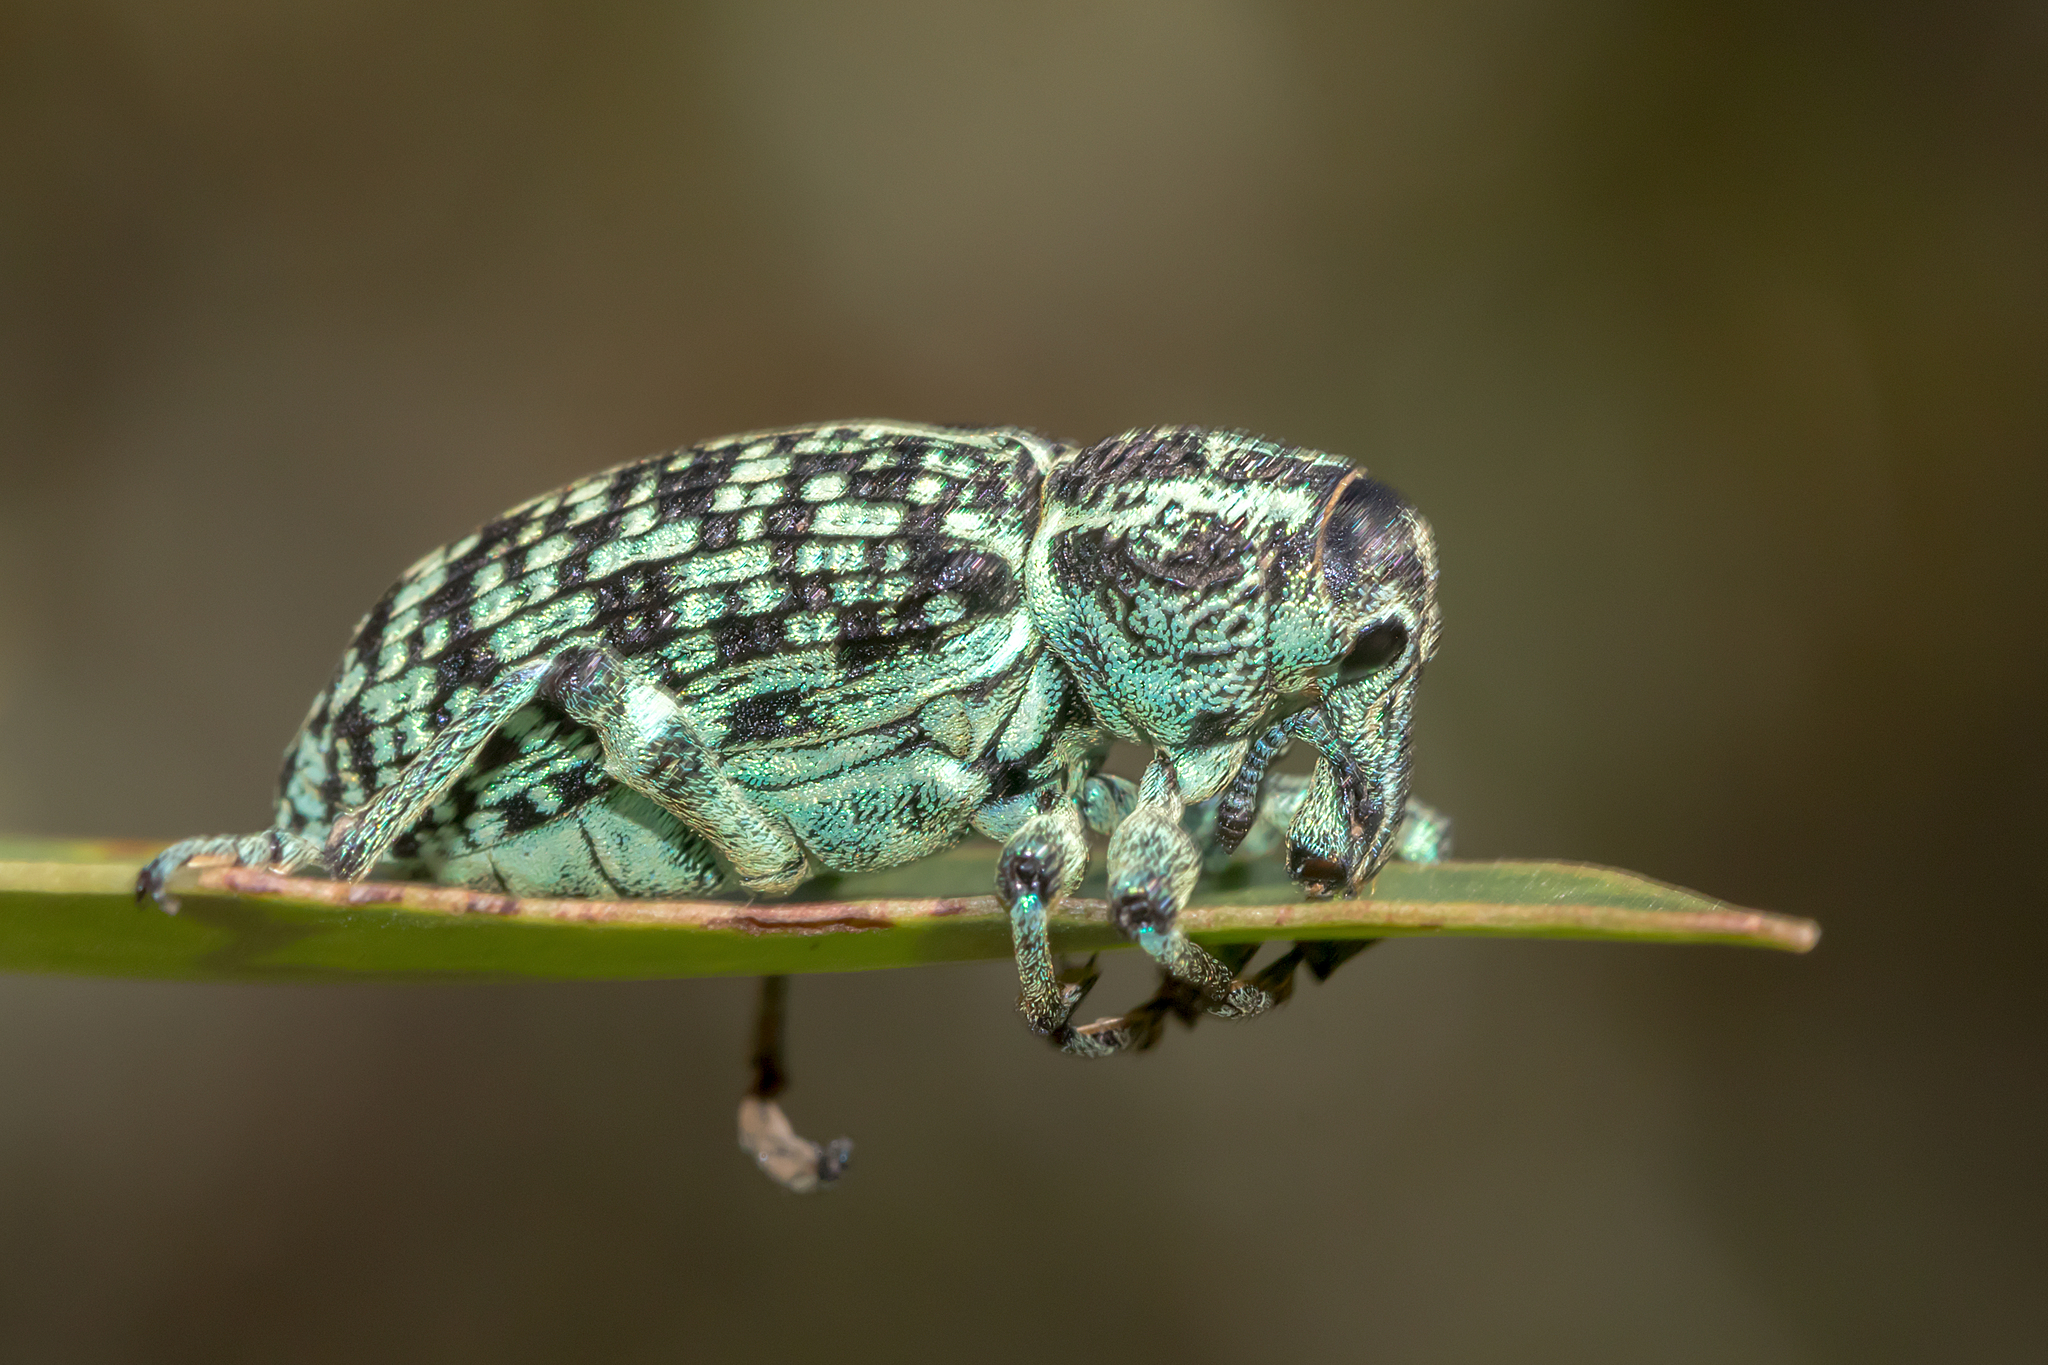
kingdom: Animalia
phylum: Arthropoda
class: Insecta
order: Coleoptera
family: Curculionidae
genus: Chrysolopus
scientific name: Chrysolopus spectabilis
